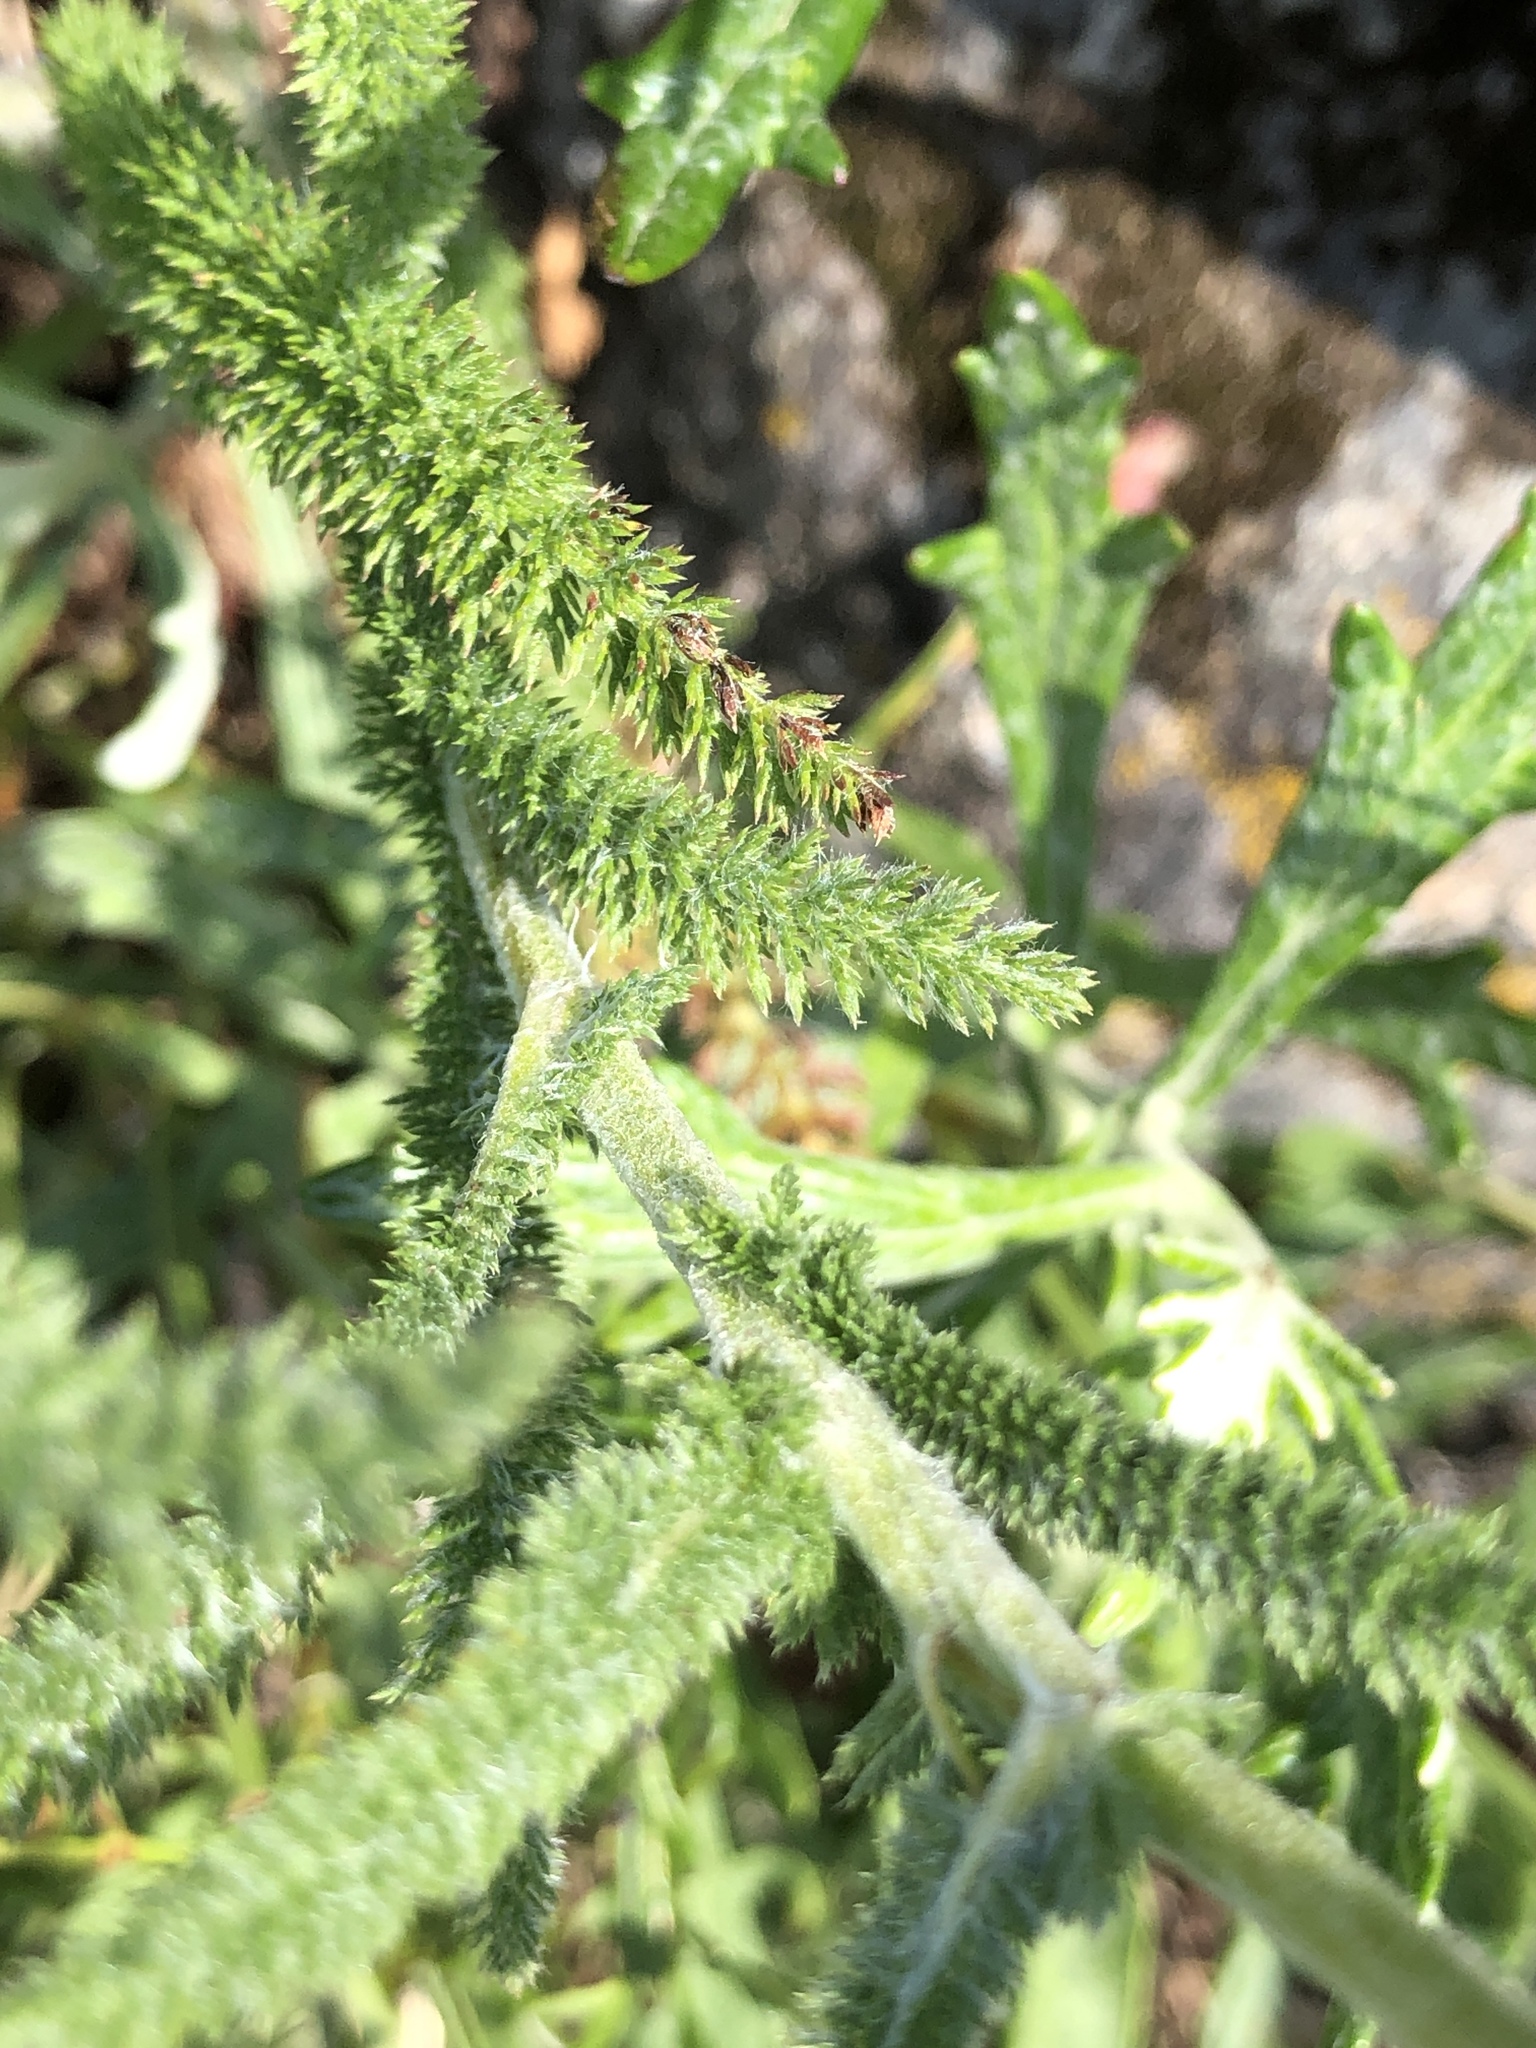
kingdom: Plantae
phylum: Tracheophyta
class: Magnoliopsida
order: Asterales
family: Asteraceae
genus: Achillea
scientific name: Achillea millefolium
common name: Yarrow
